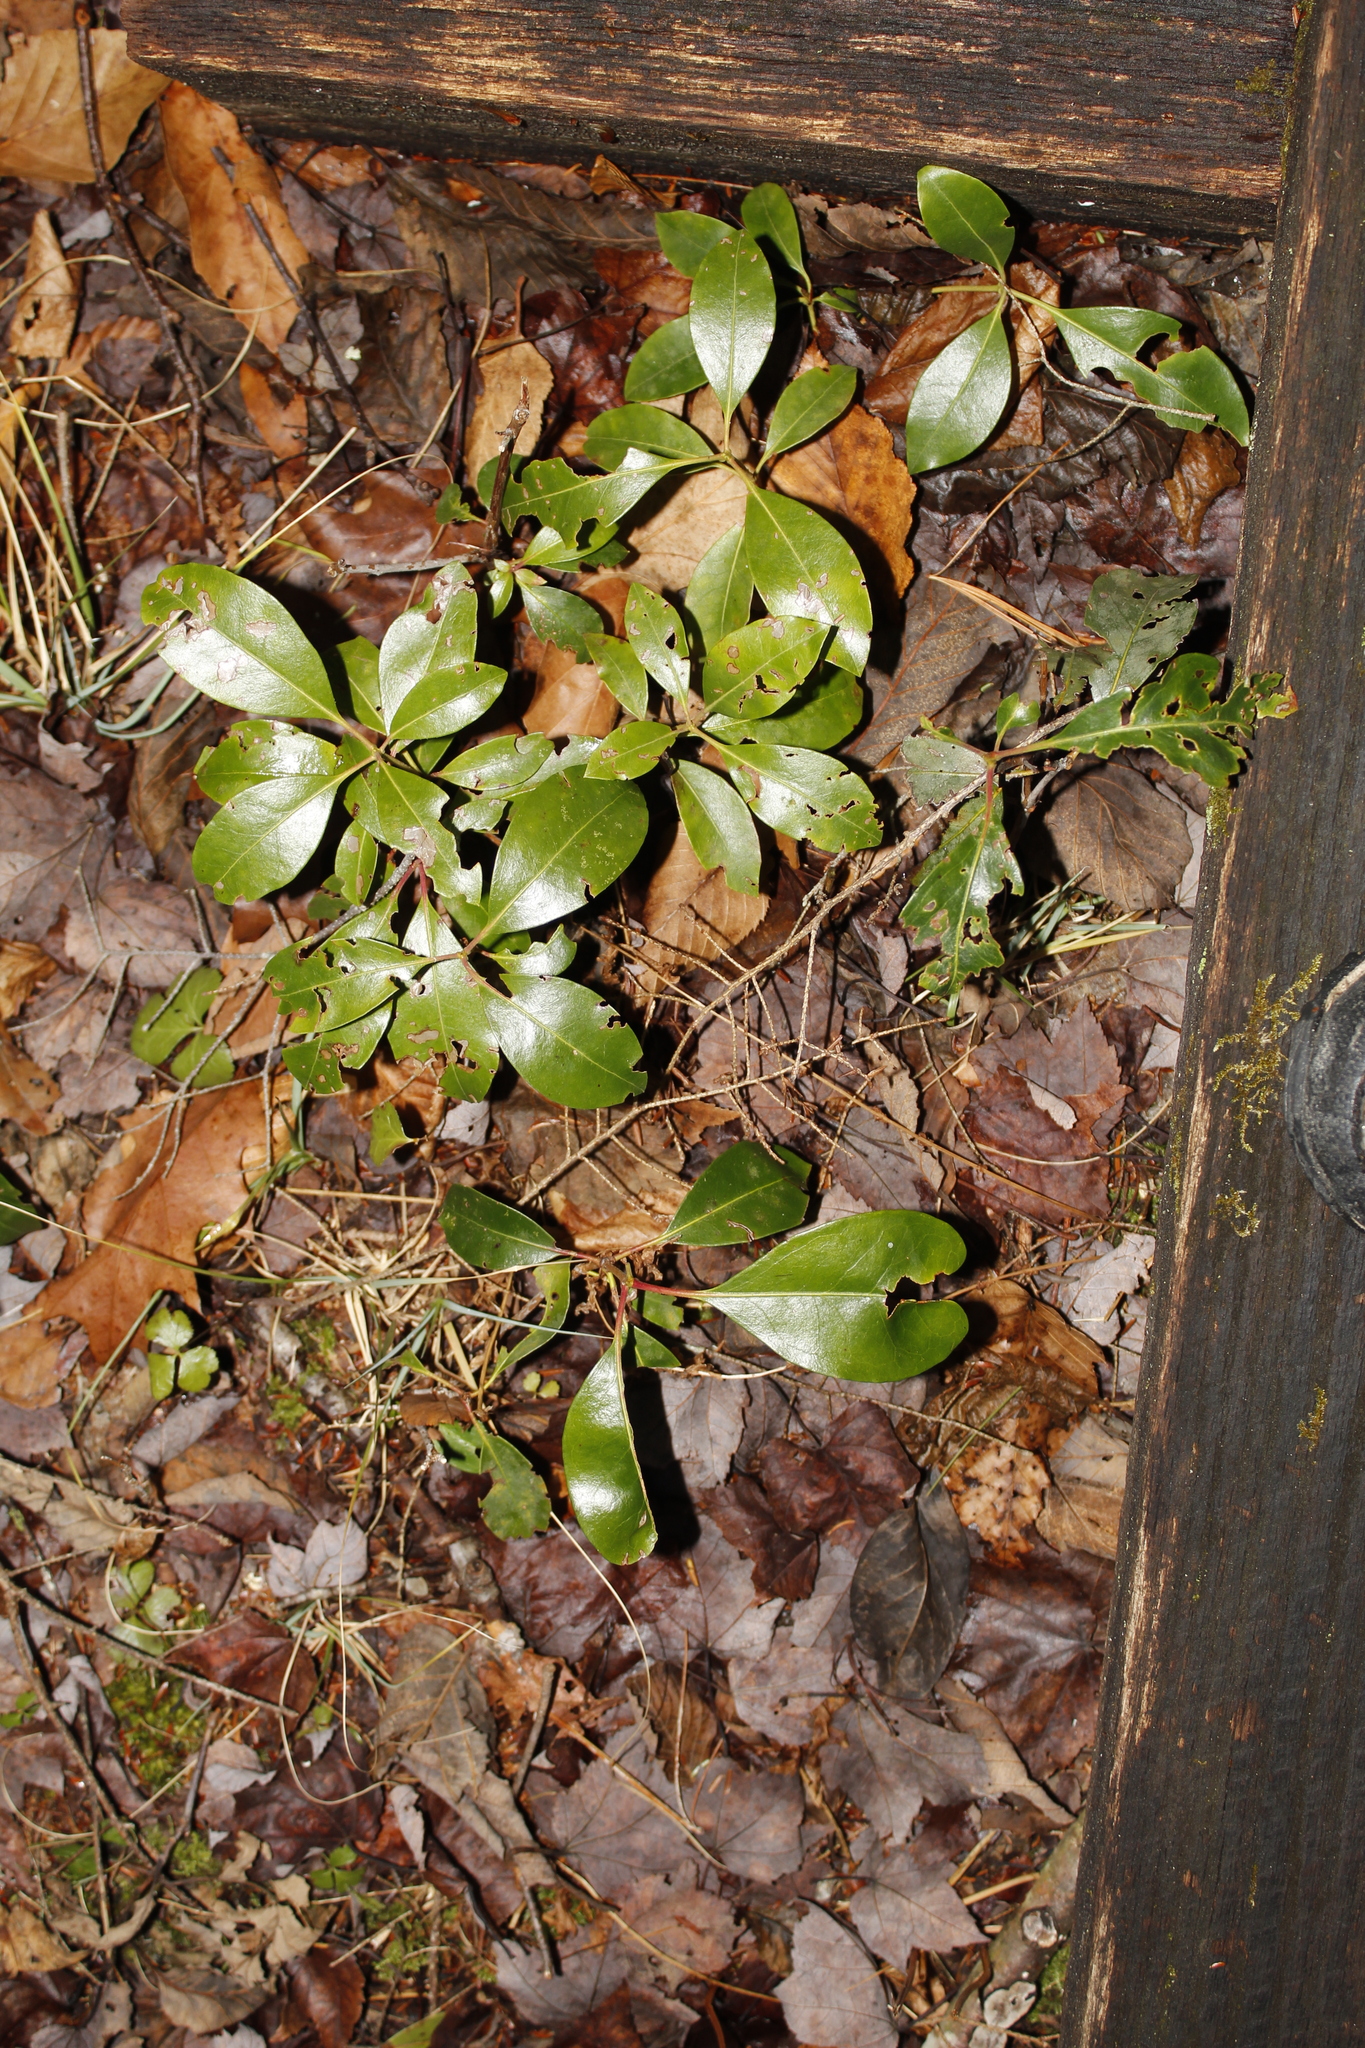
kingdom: Plantae
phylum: Tracheophyta
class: Magnoliopsida
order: Ericales
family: Ericaceae
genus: Gaultheria
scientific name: Gaultheria procumbens
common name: Checkerberry
